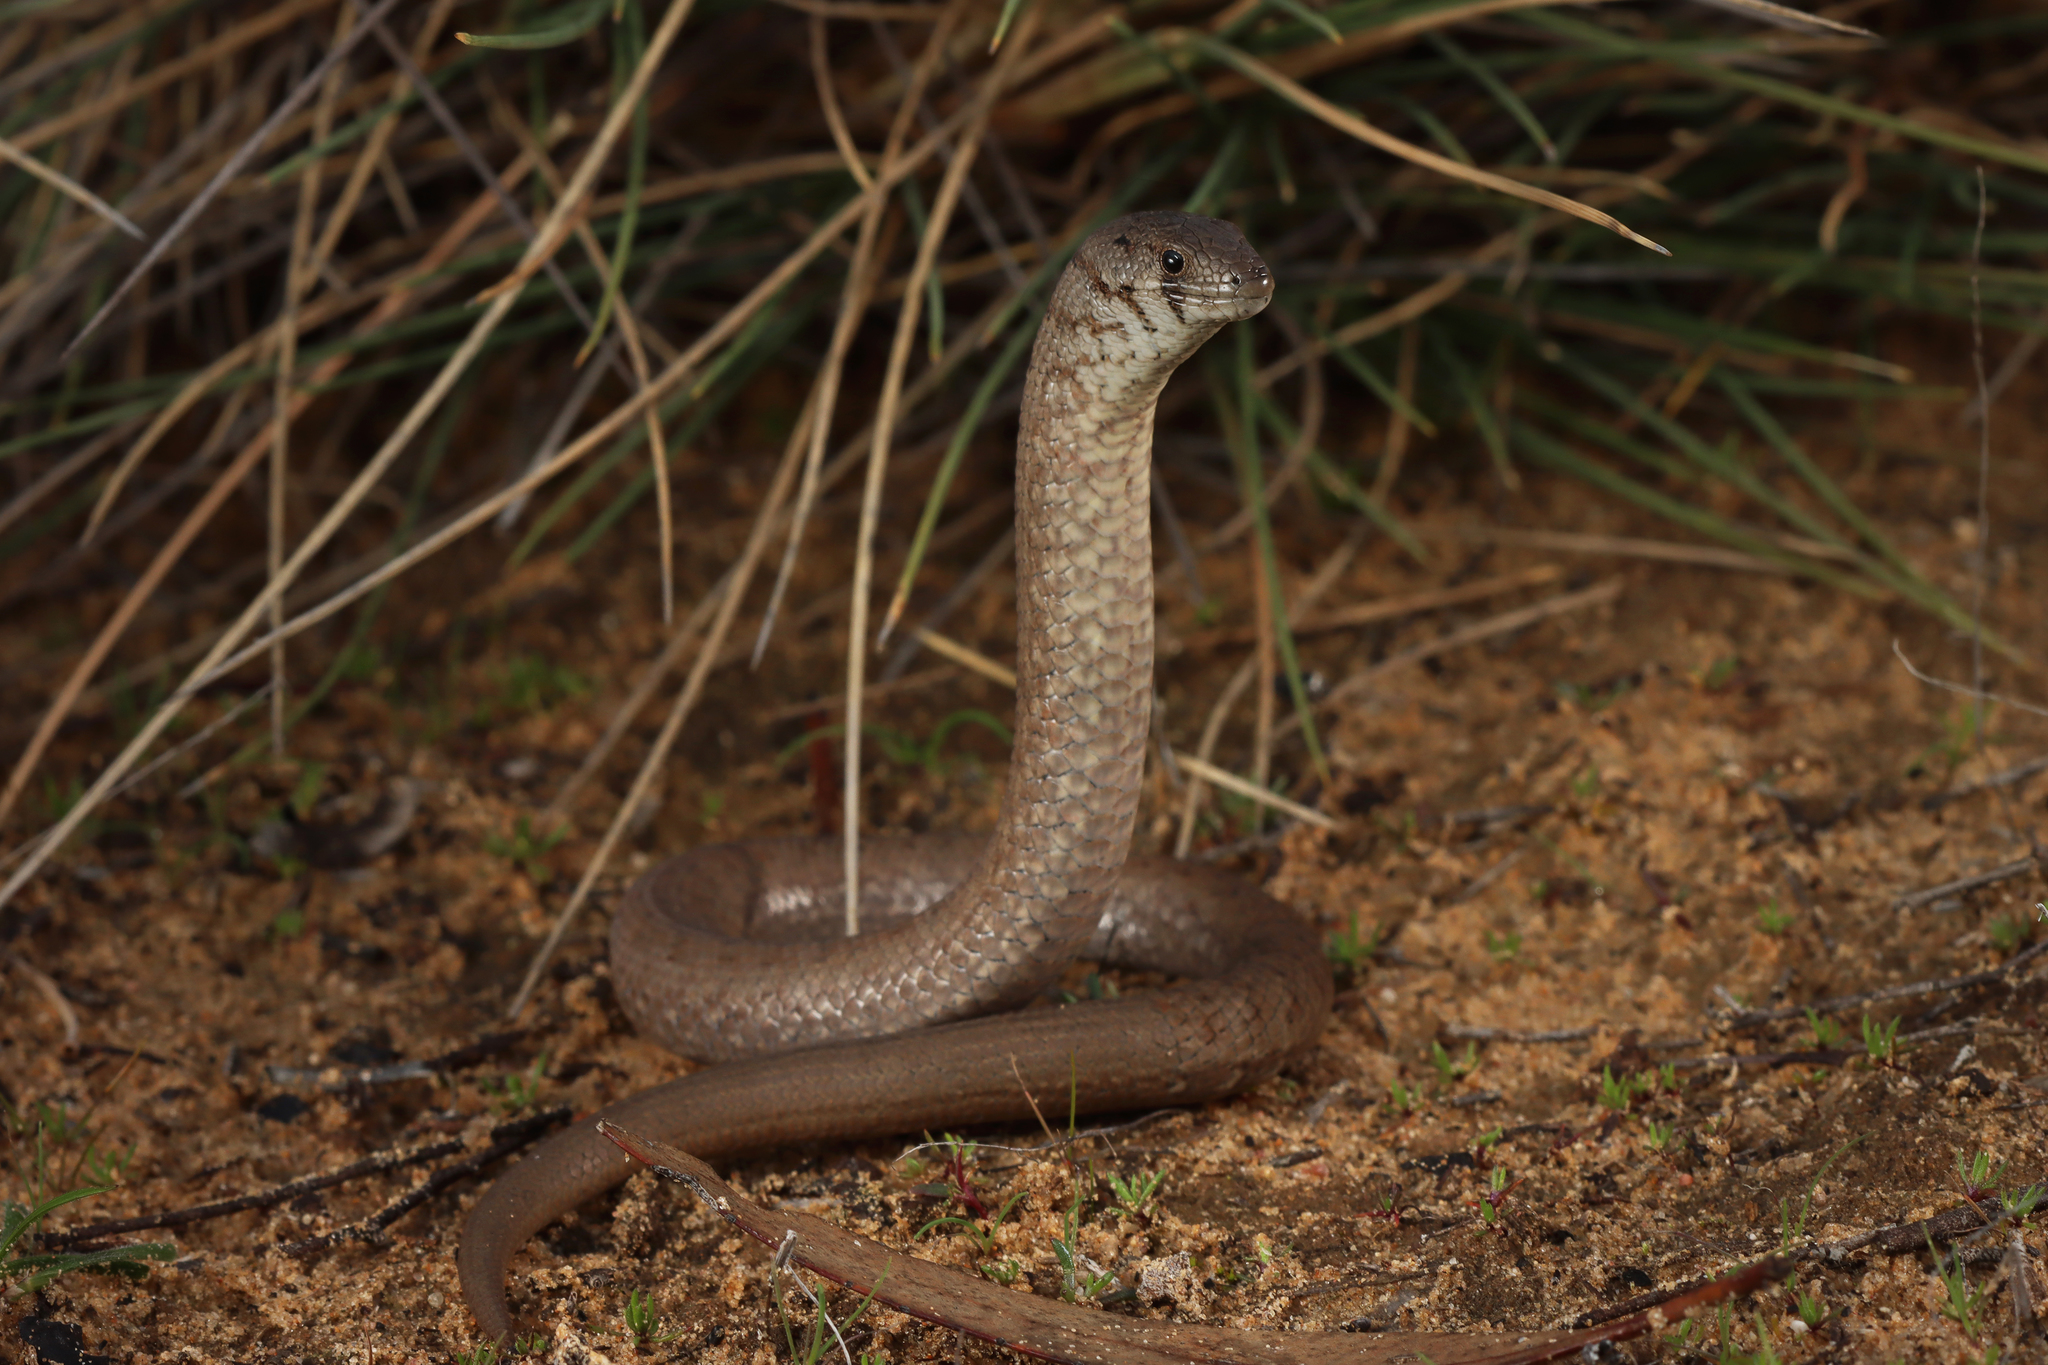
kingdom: Animalia
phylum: Chordata
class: Squamata
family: Pygopodidae
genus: Pygopus
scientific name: Pygopus lepidopodus
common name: Southern scaly-foot
